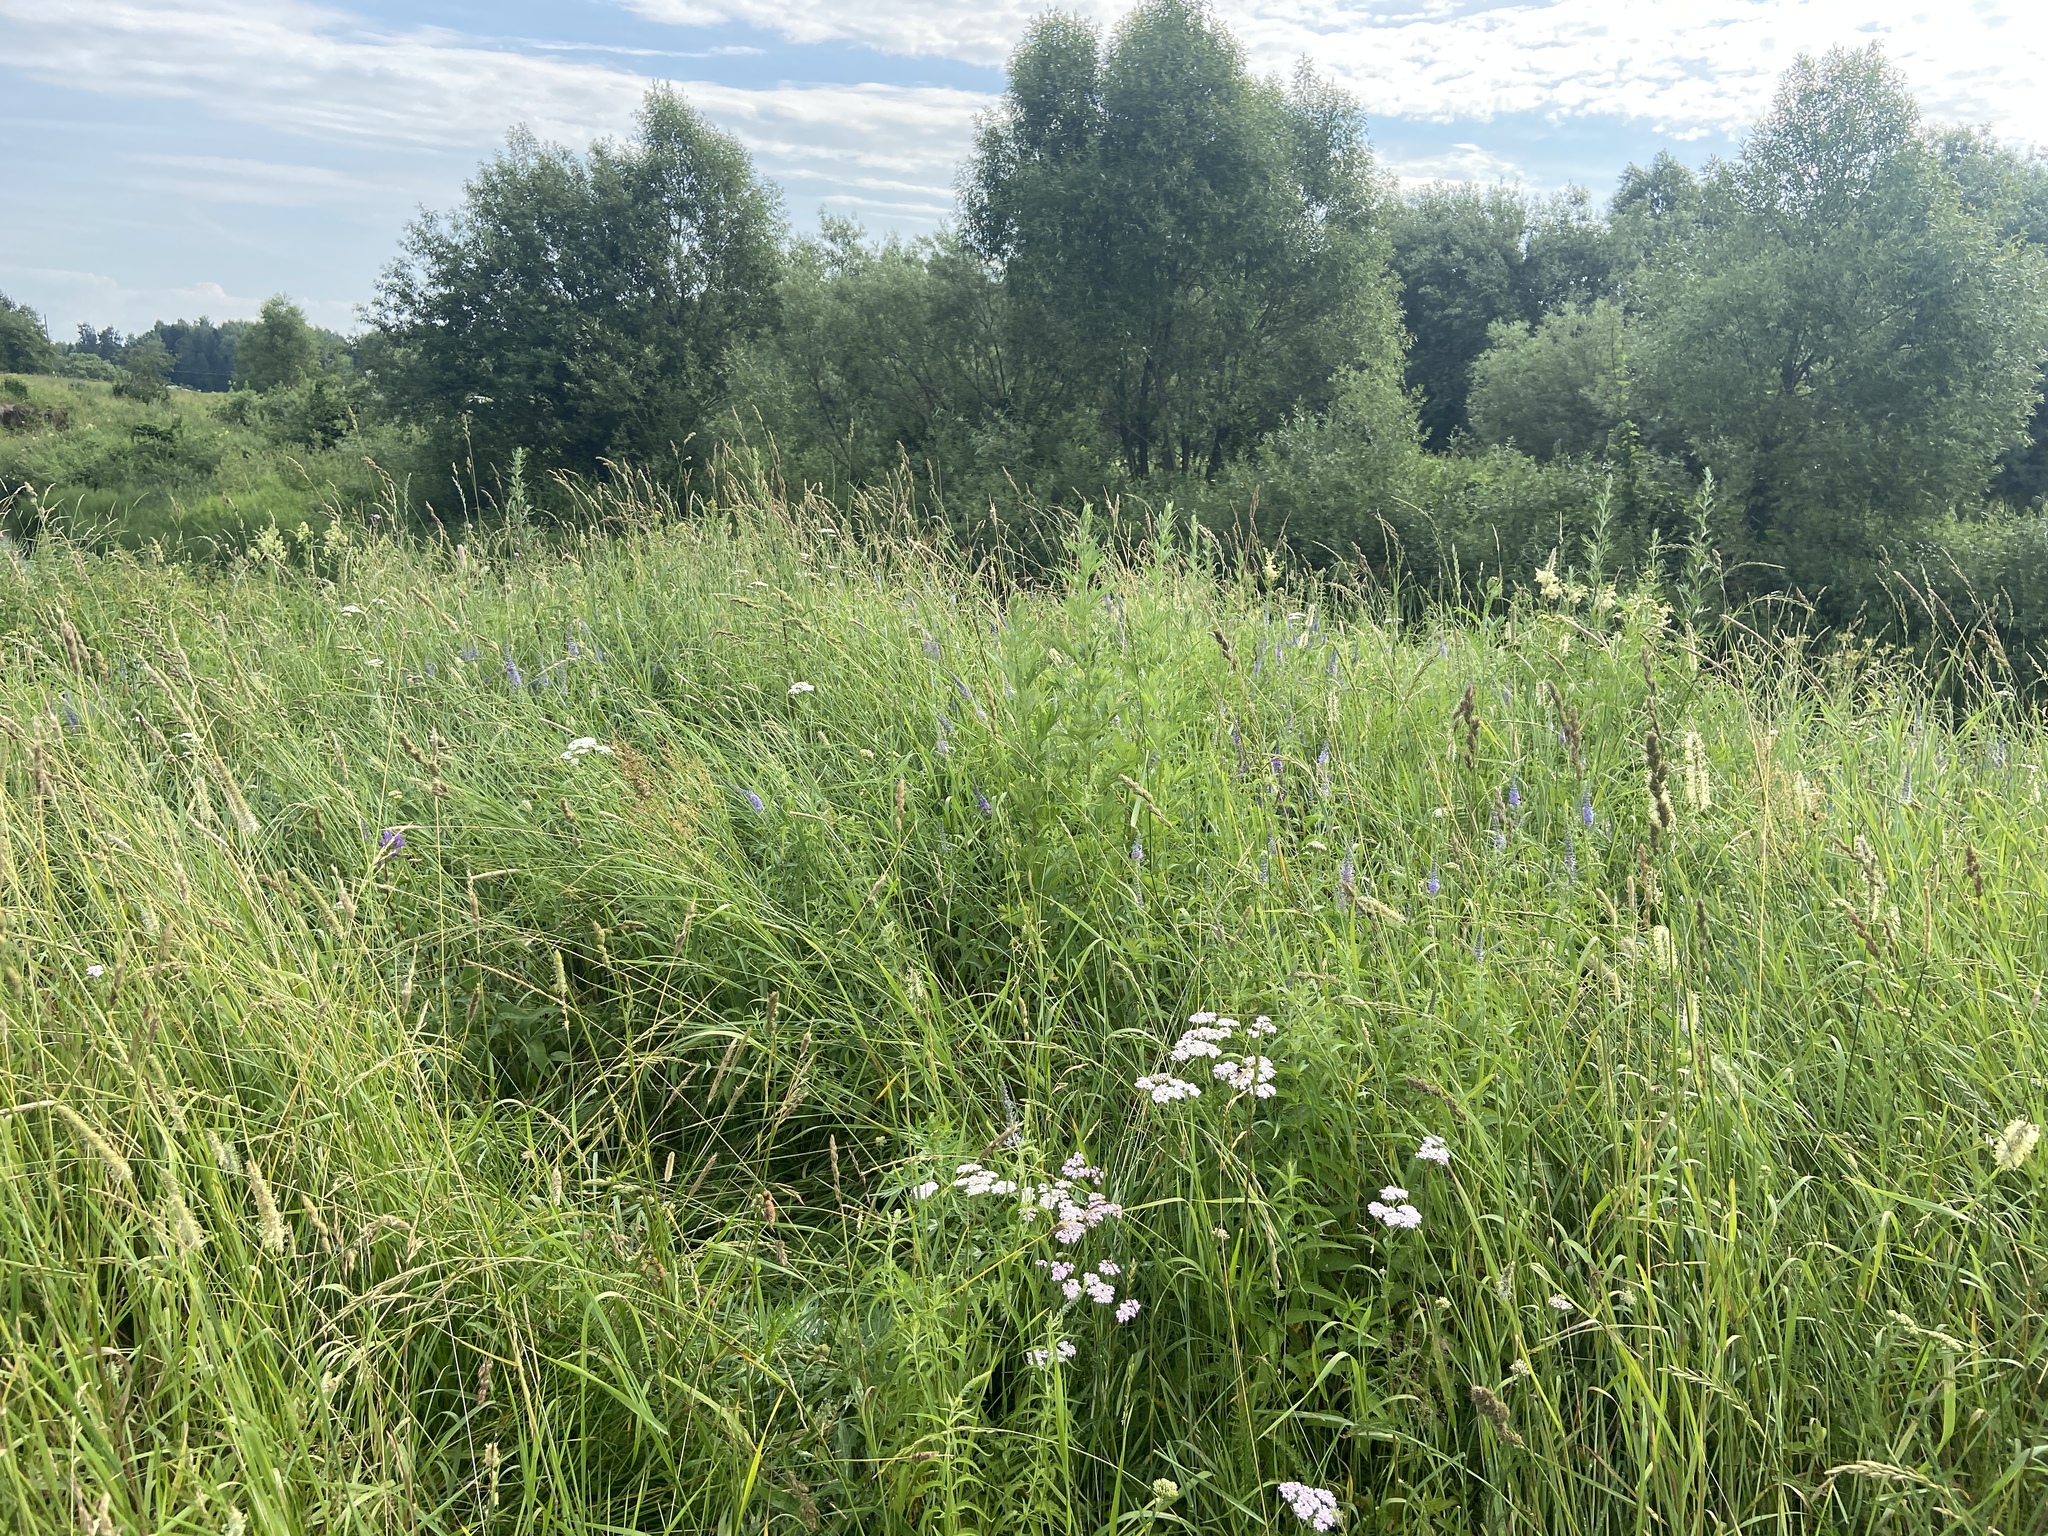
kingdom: Plantae
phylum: Tracheophyta
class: Magnoliopsida
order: Asterales
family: Asteraceae
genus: Achillea
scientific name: Achillea millefolium
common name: Yarrow
